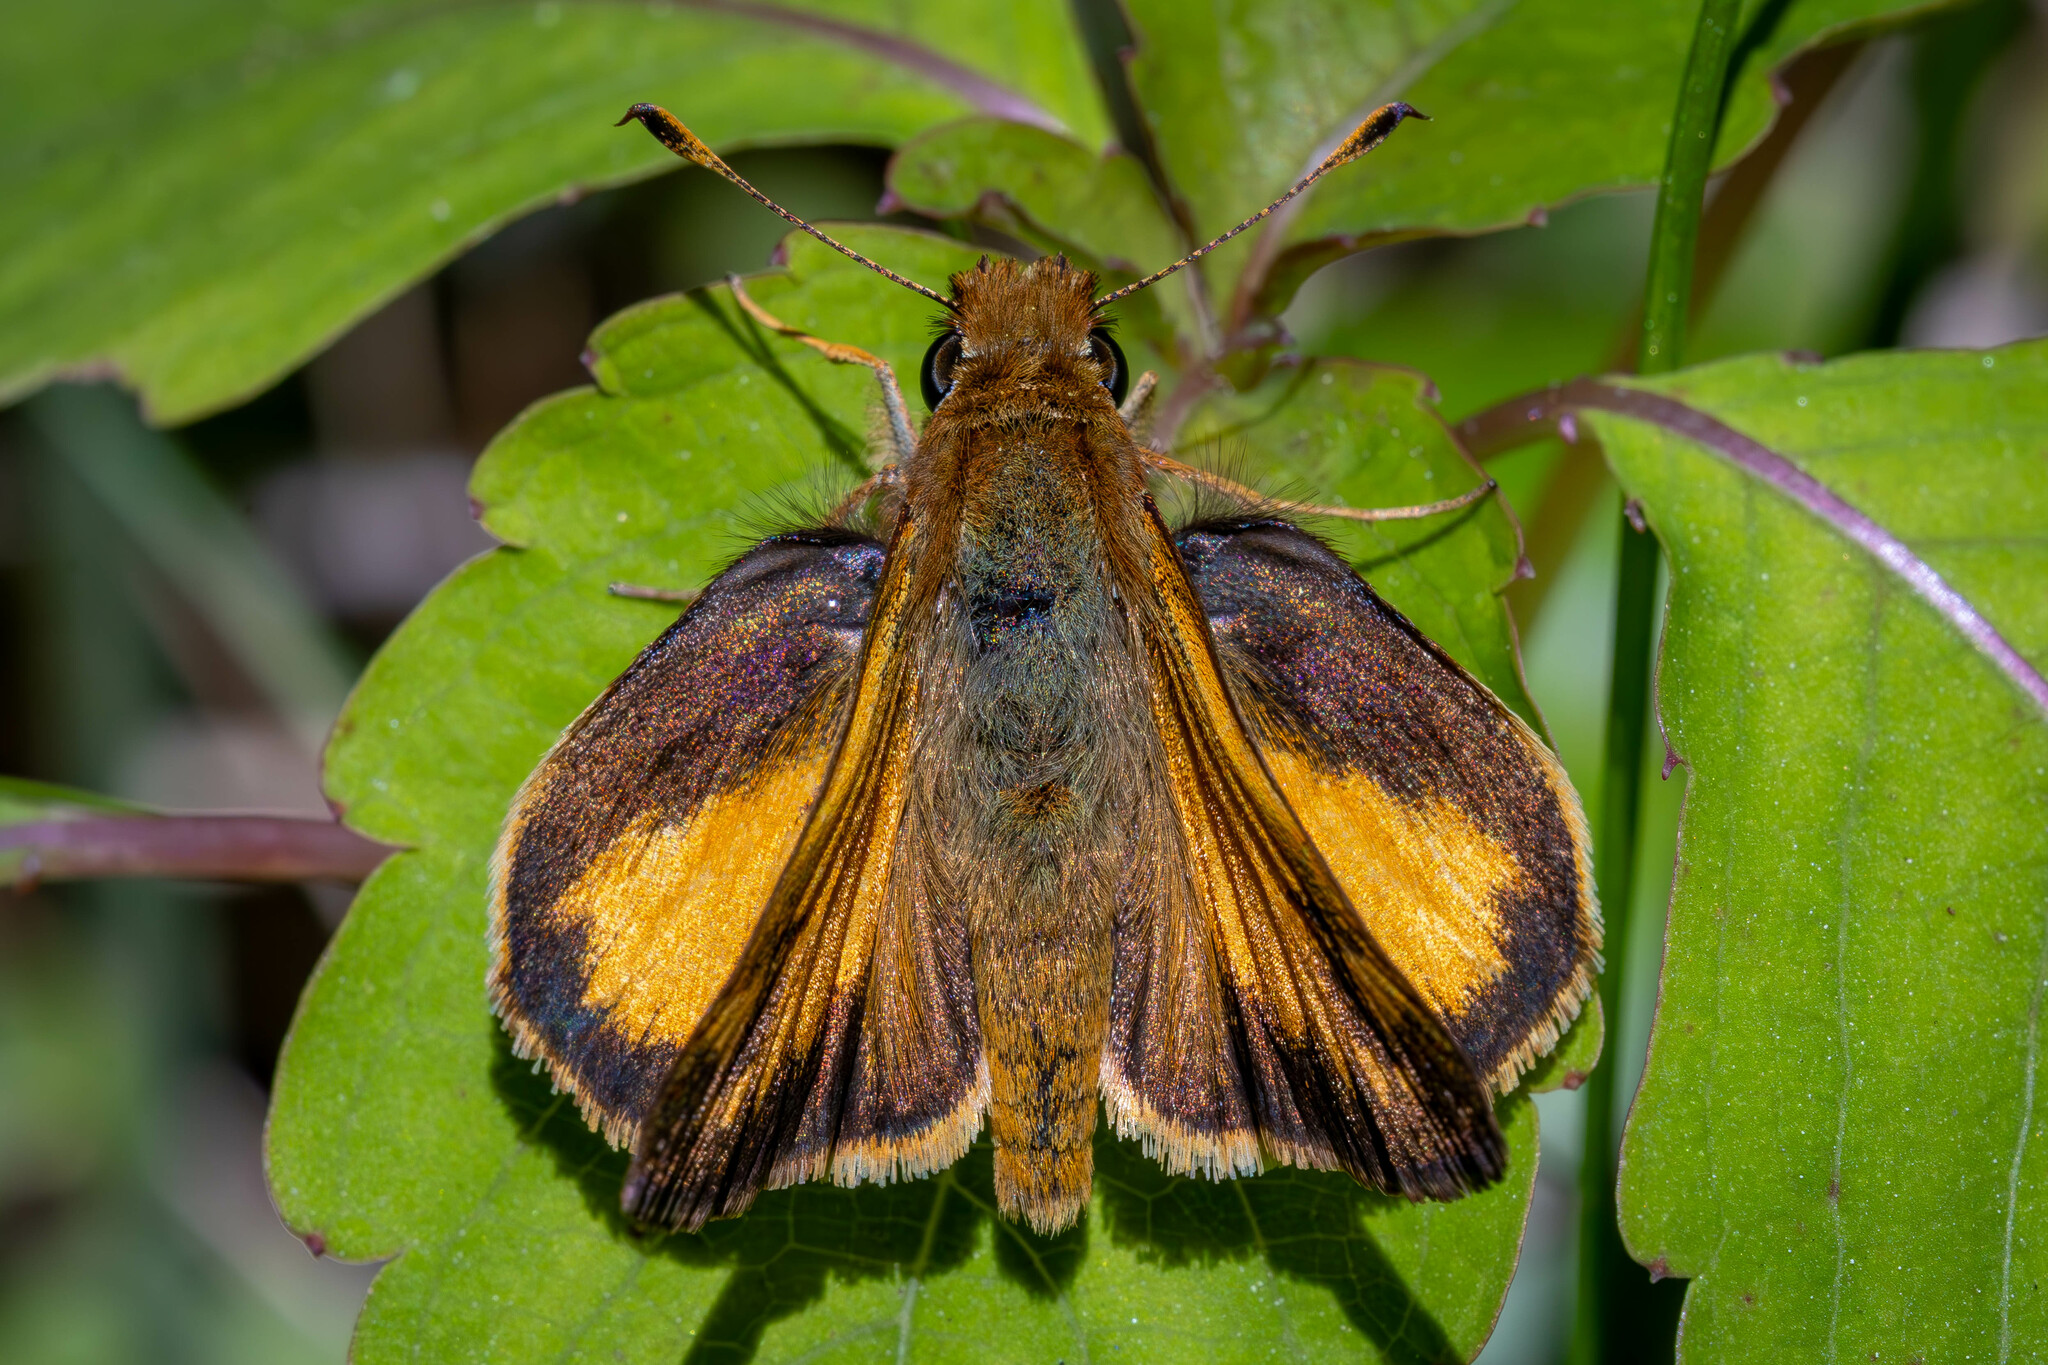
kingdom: Animalia
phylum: Arthropoda
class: Insecta
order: Lepidoptera
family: Hesperiidae
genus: Lon
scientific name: Lon zabulon
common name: Zabulon skipper
